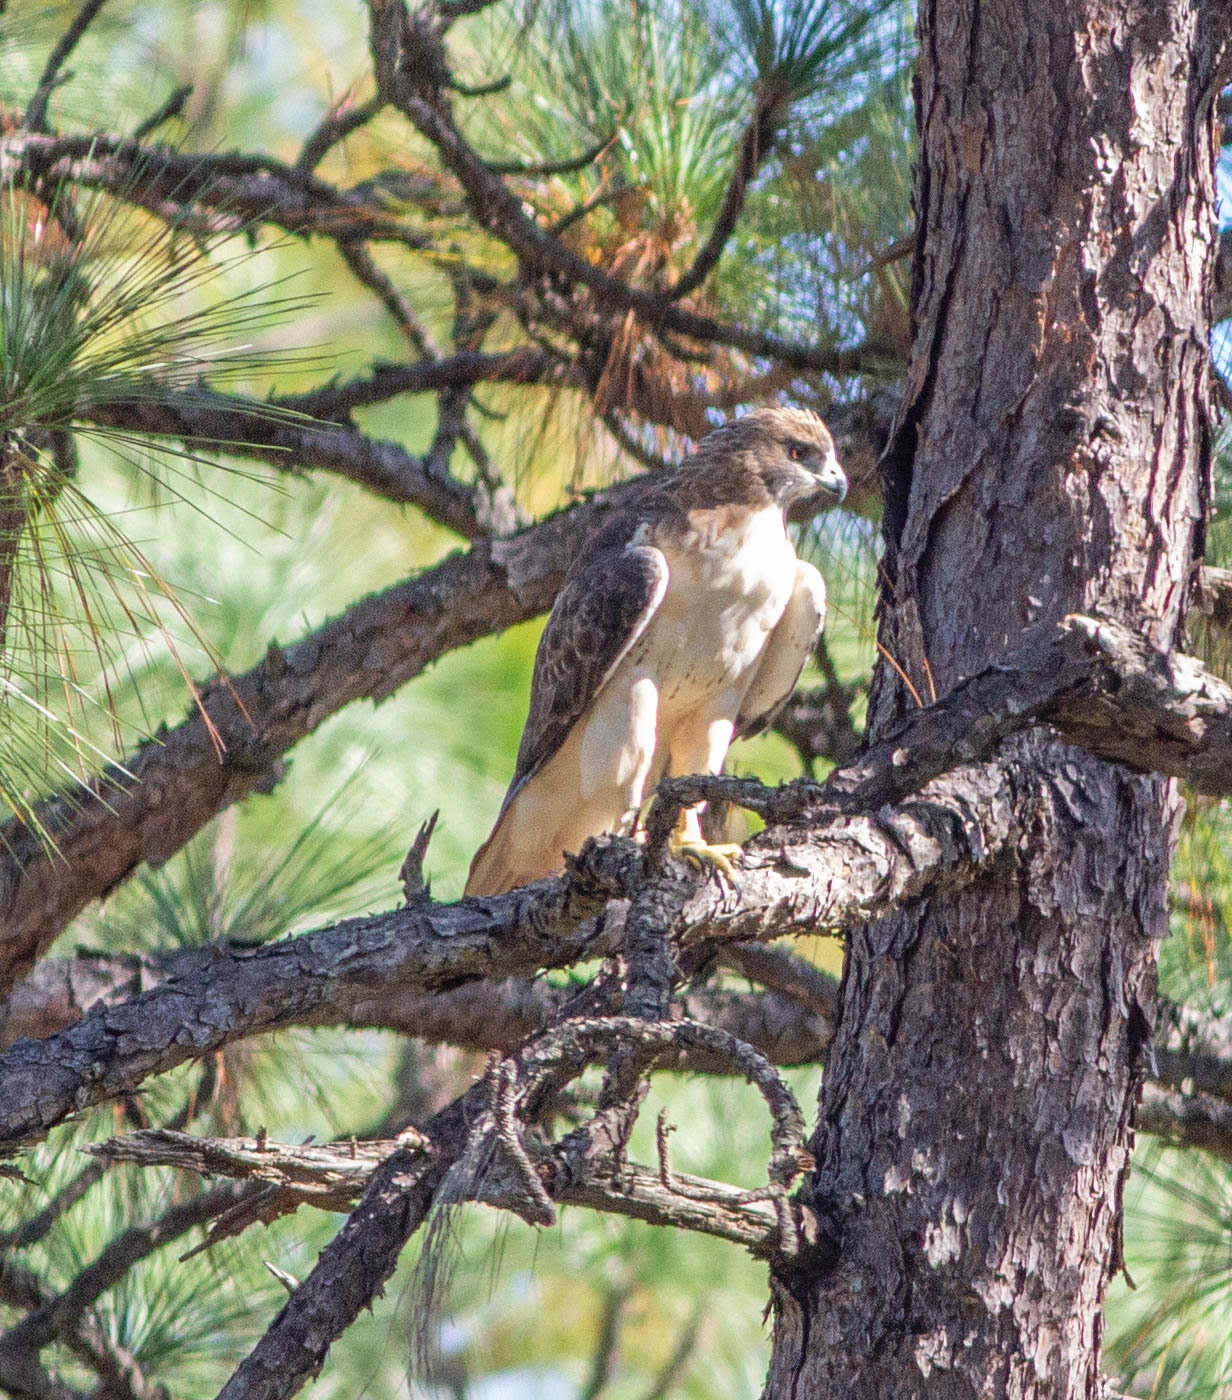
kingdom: Animalia
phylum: Chordata
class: Aves
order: Accipitriformes
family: Accipitridae
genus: Buteo
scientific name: Buteo jamaicensis
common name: Red-tailed hawk
